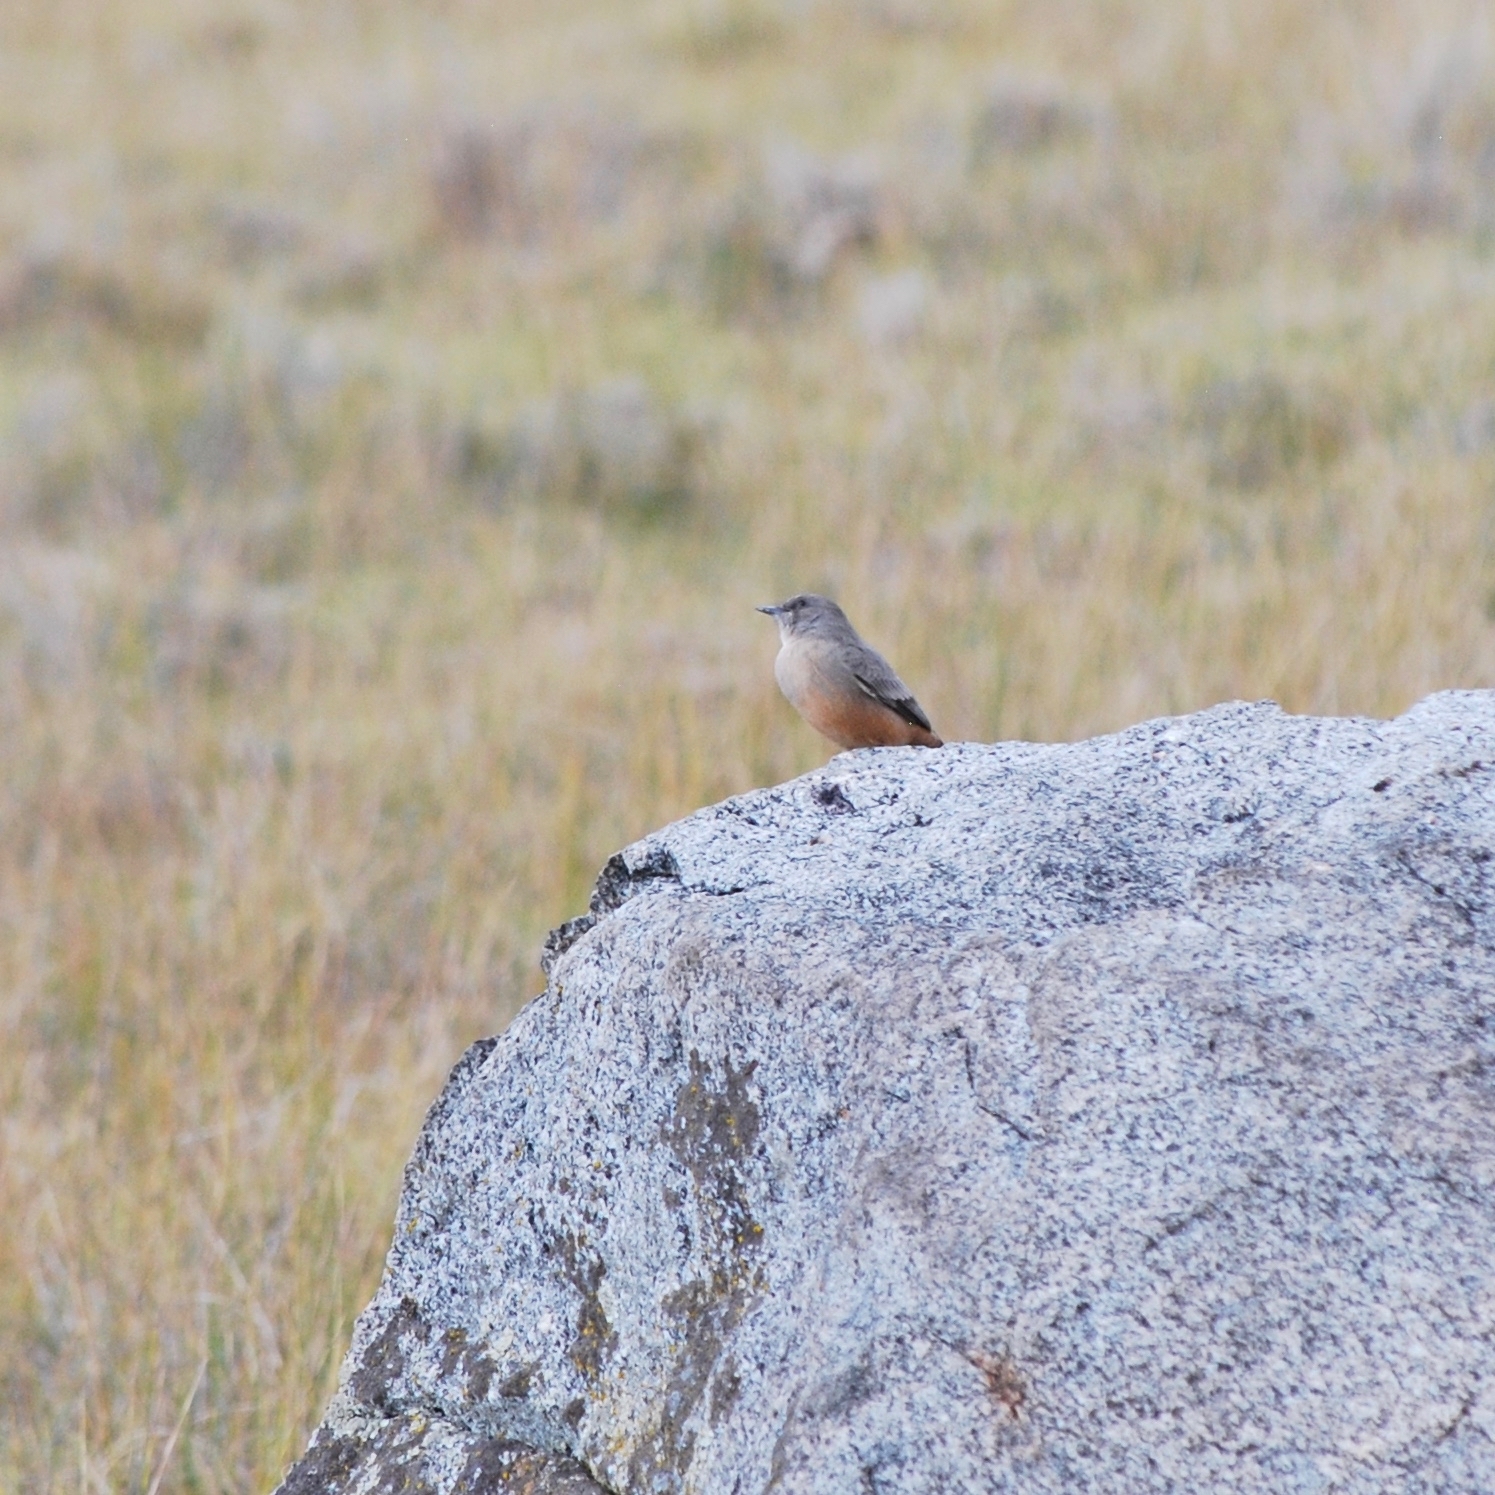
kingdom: Animalia
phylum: Chordata
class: Aves
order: Passeriformes
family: Tyrannidae
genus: Sayornis
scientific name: Sayornis saya
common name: Say's phoebe
